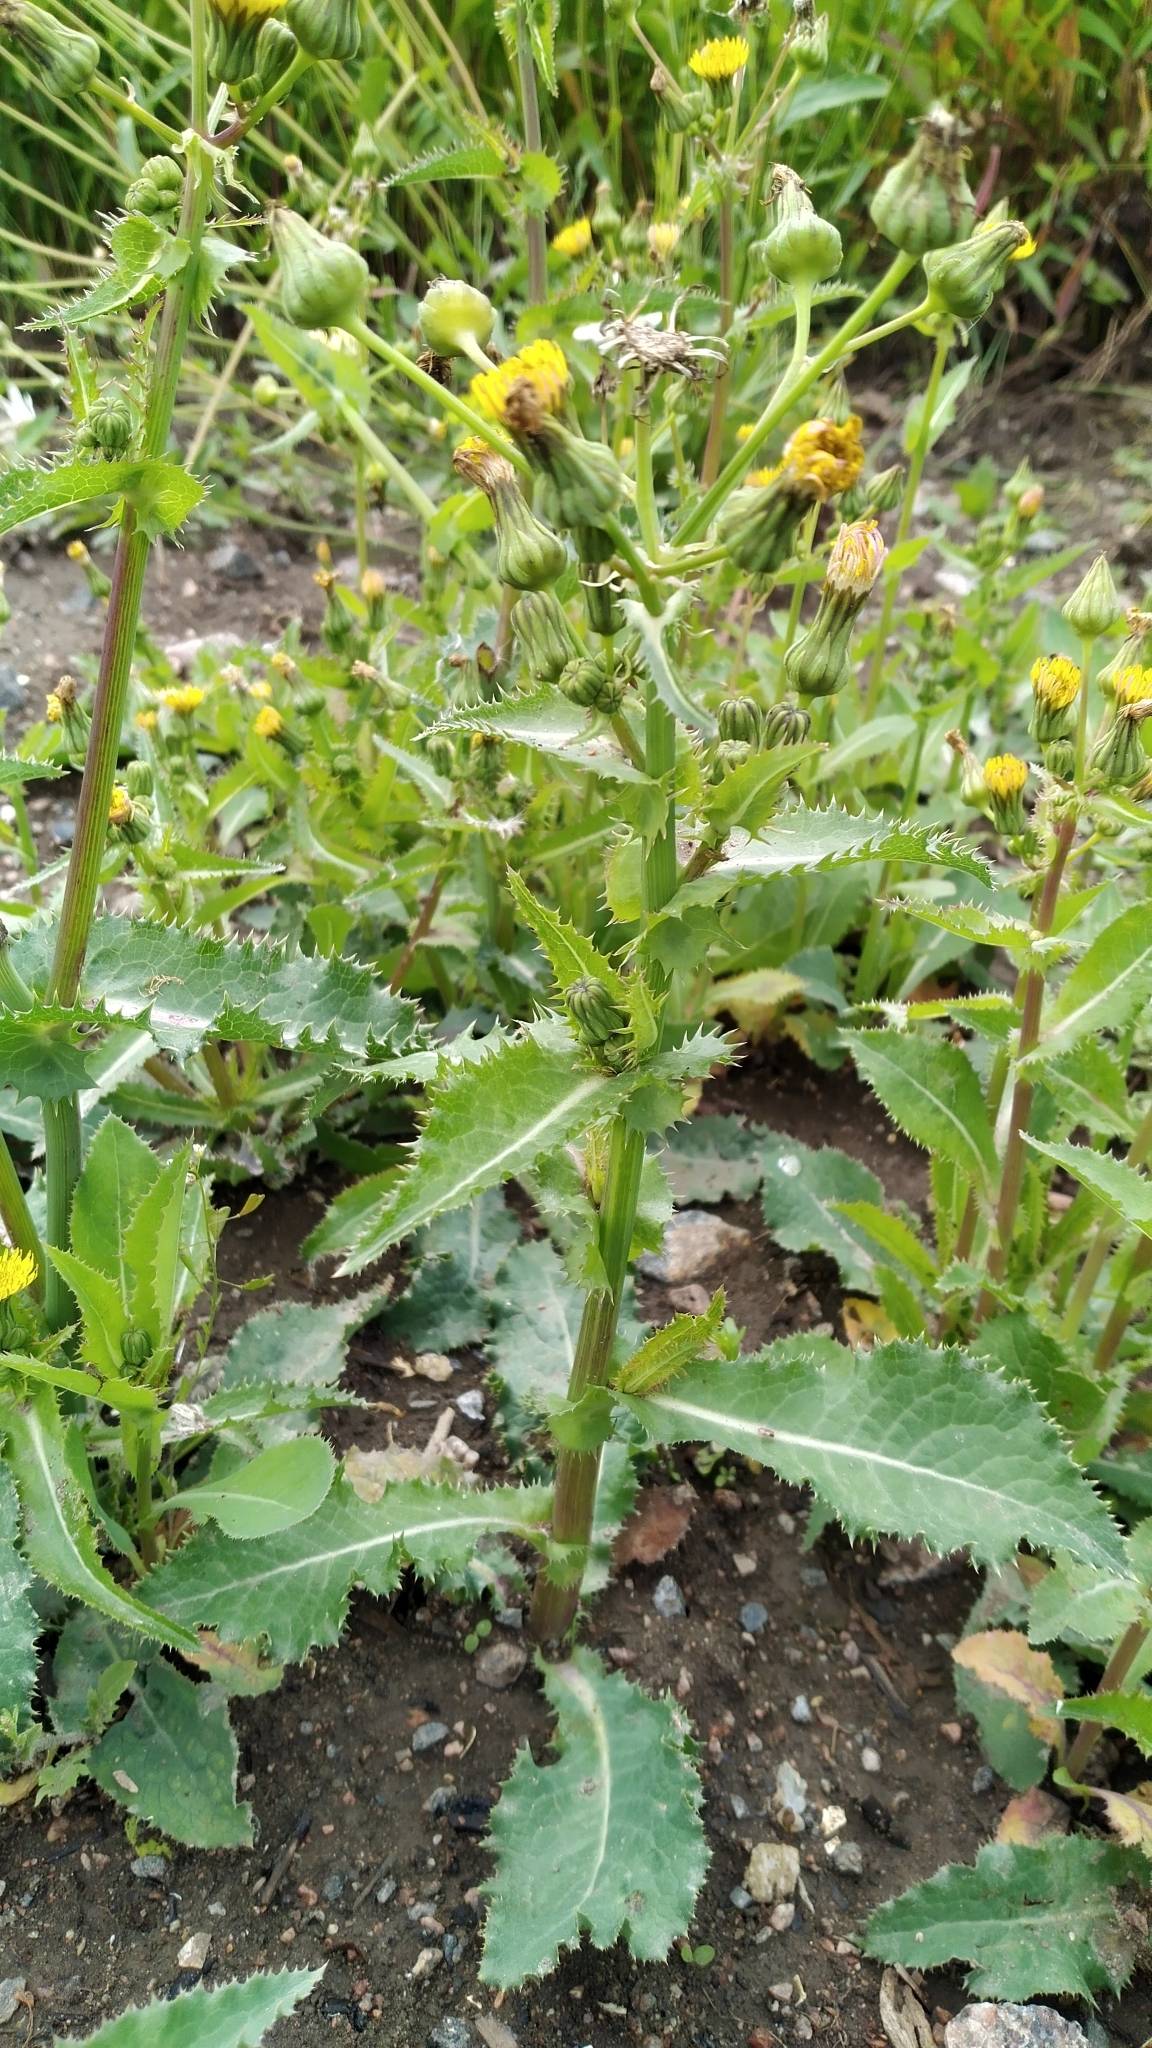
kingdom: Plantae
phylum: Tracheophyta
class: Magnoliopsida
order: Asterales
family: Asteraceae
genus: Sonchus
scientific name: Sonchus asper
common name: Prickly sow-thistle
